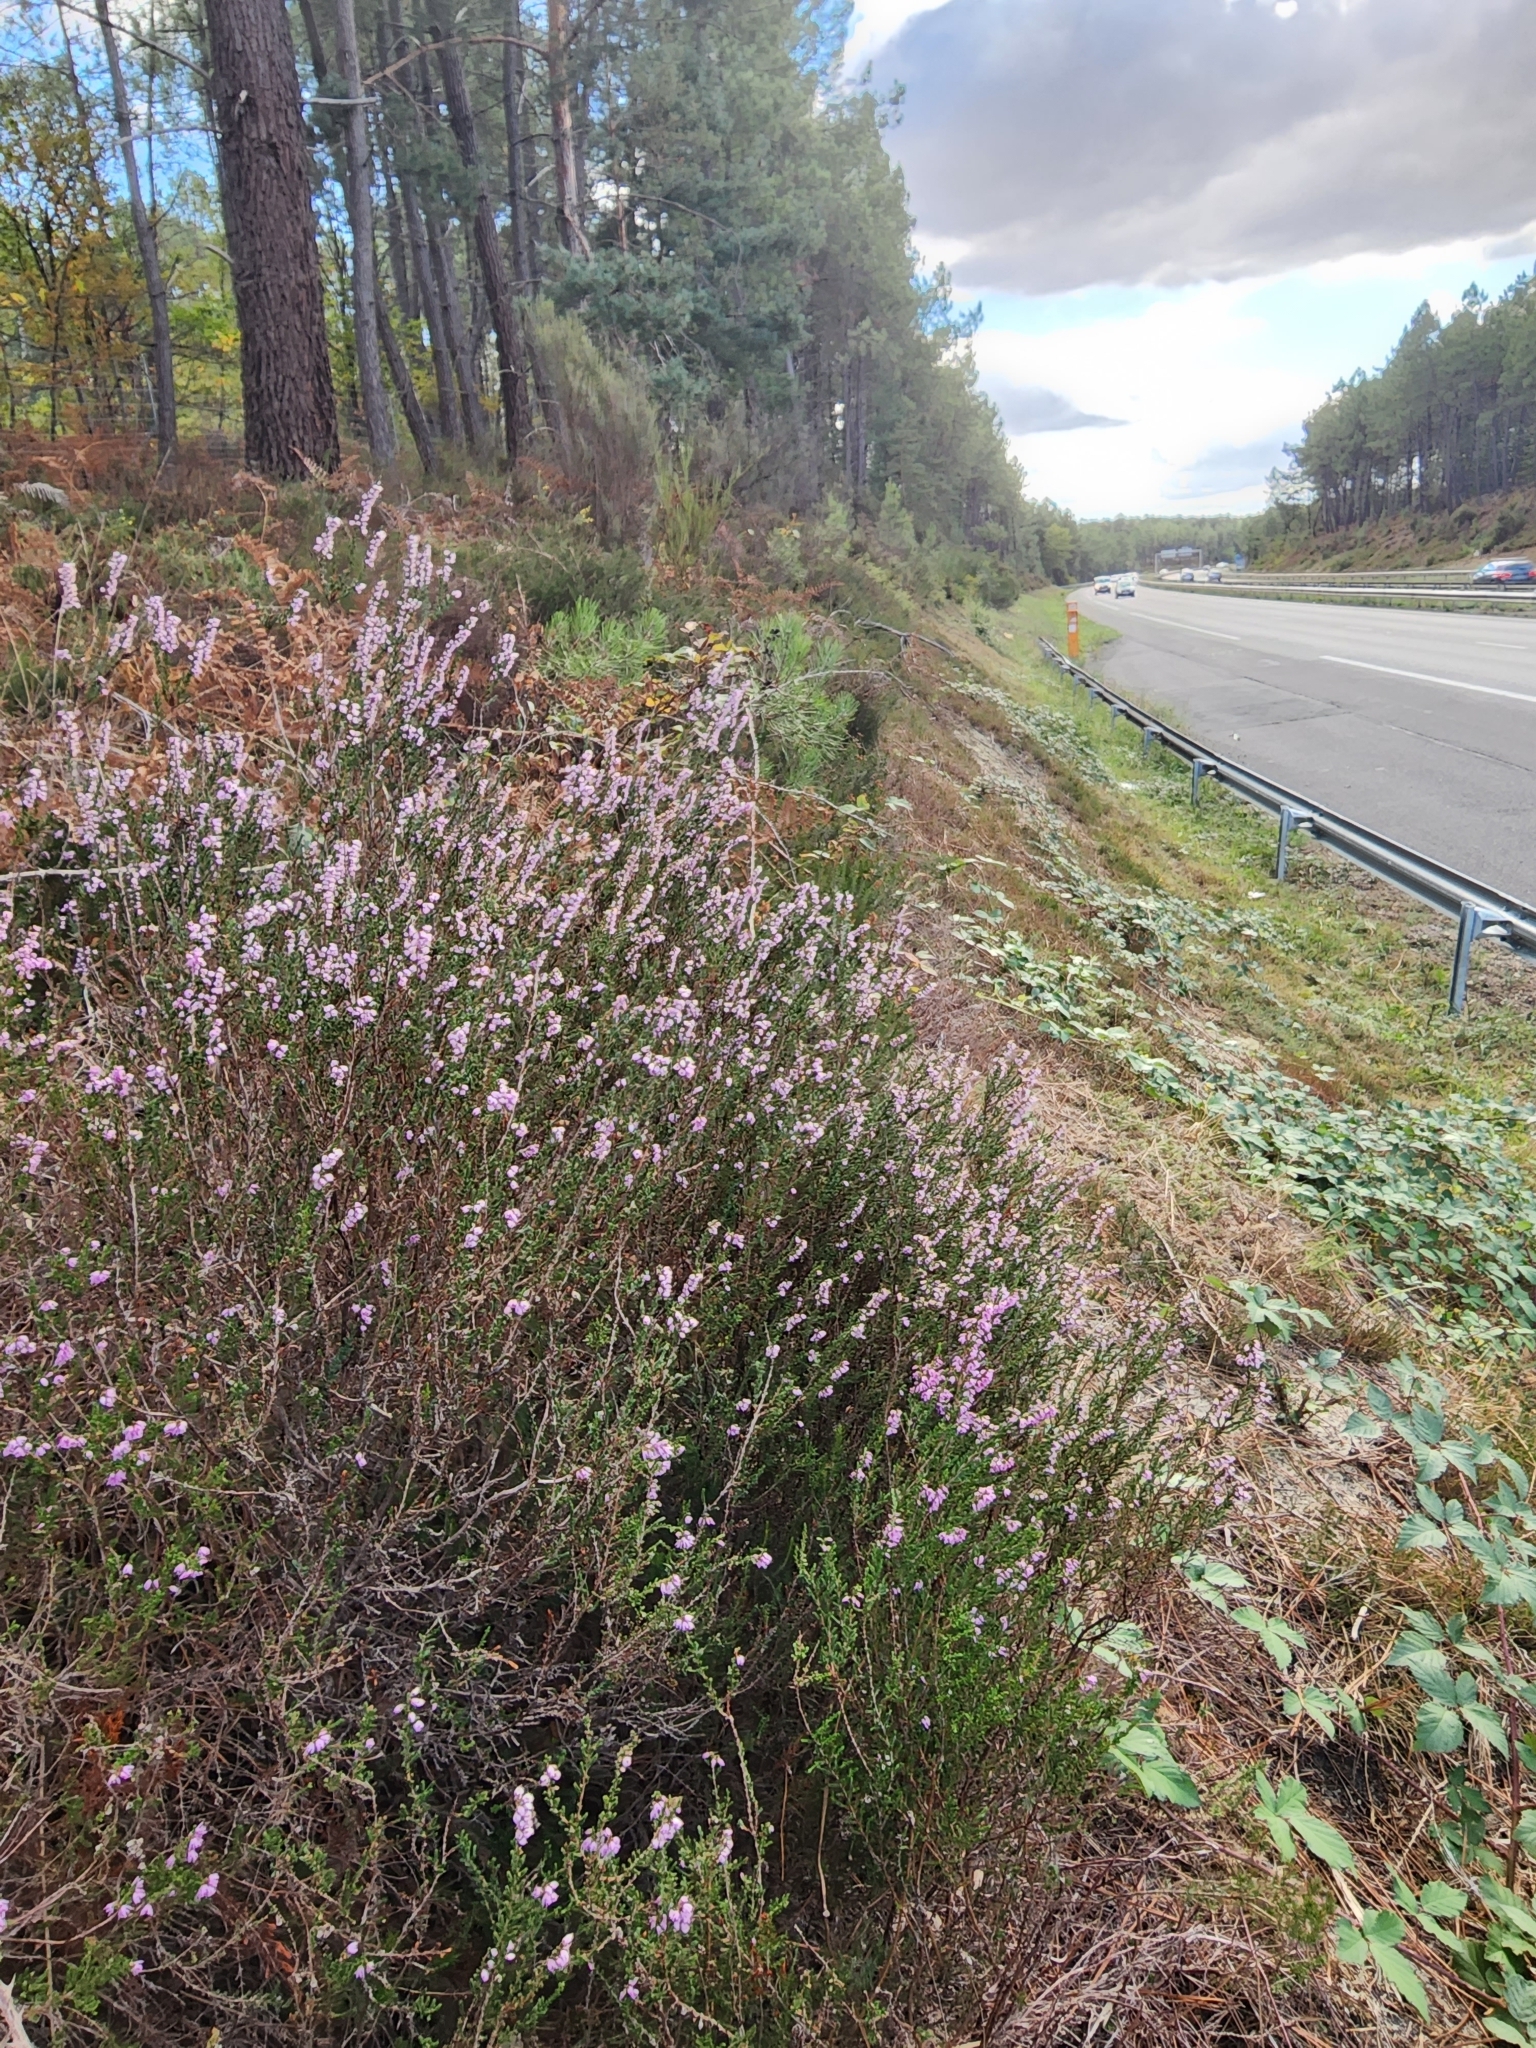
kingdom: Plantae
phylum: Tracheophyta
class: Magnoliopsida
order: Ericales
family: Ericaceae
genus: Calluna
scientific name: Calluna vulgaris
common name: Heather
